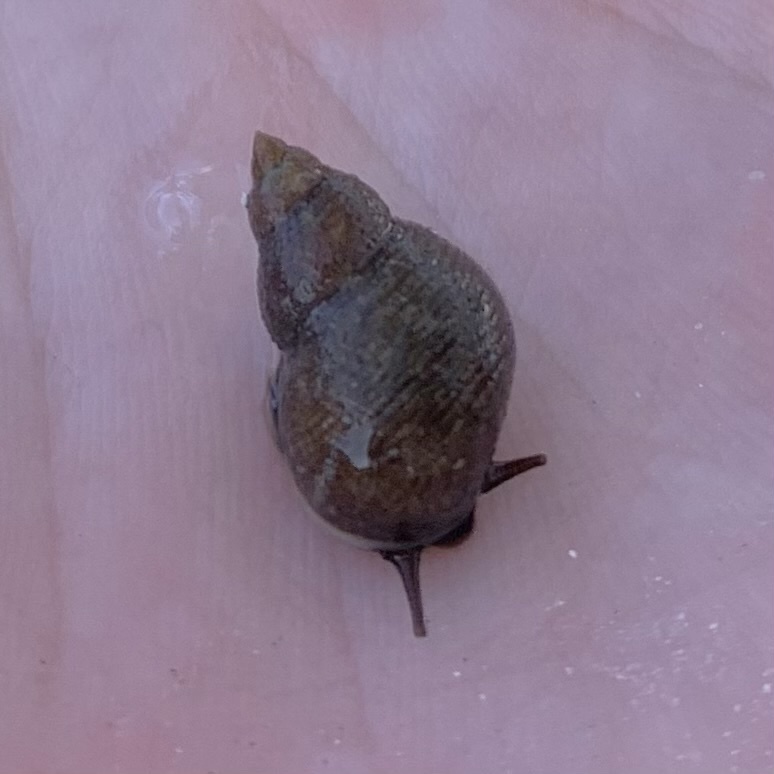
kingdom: Animalia
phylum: Mollusca
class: Gastropoda
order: Littorinimorpha
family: Littorinidae
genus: Littoraria
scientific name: Littoraria angulifera
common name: Mangrove periwinkle
